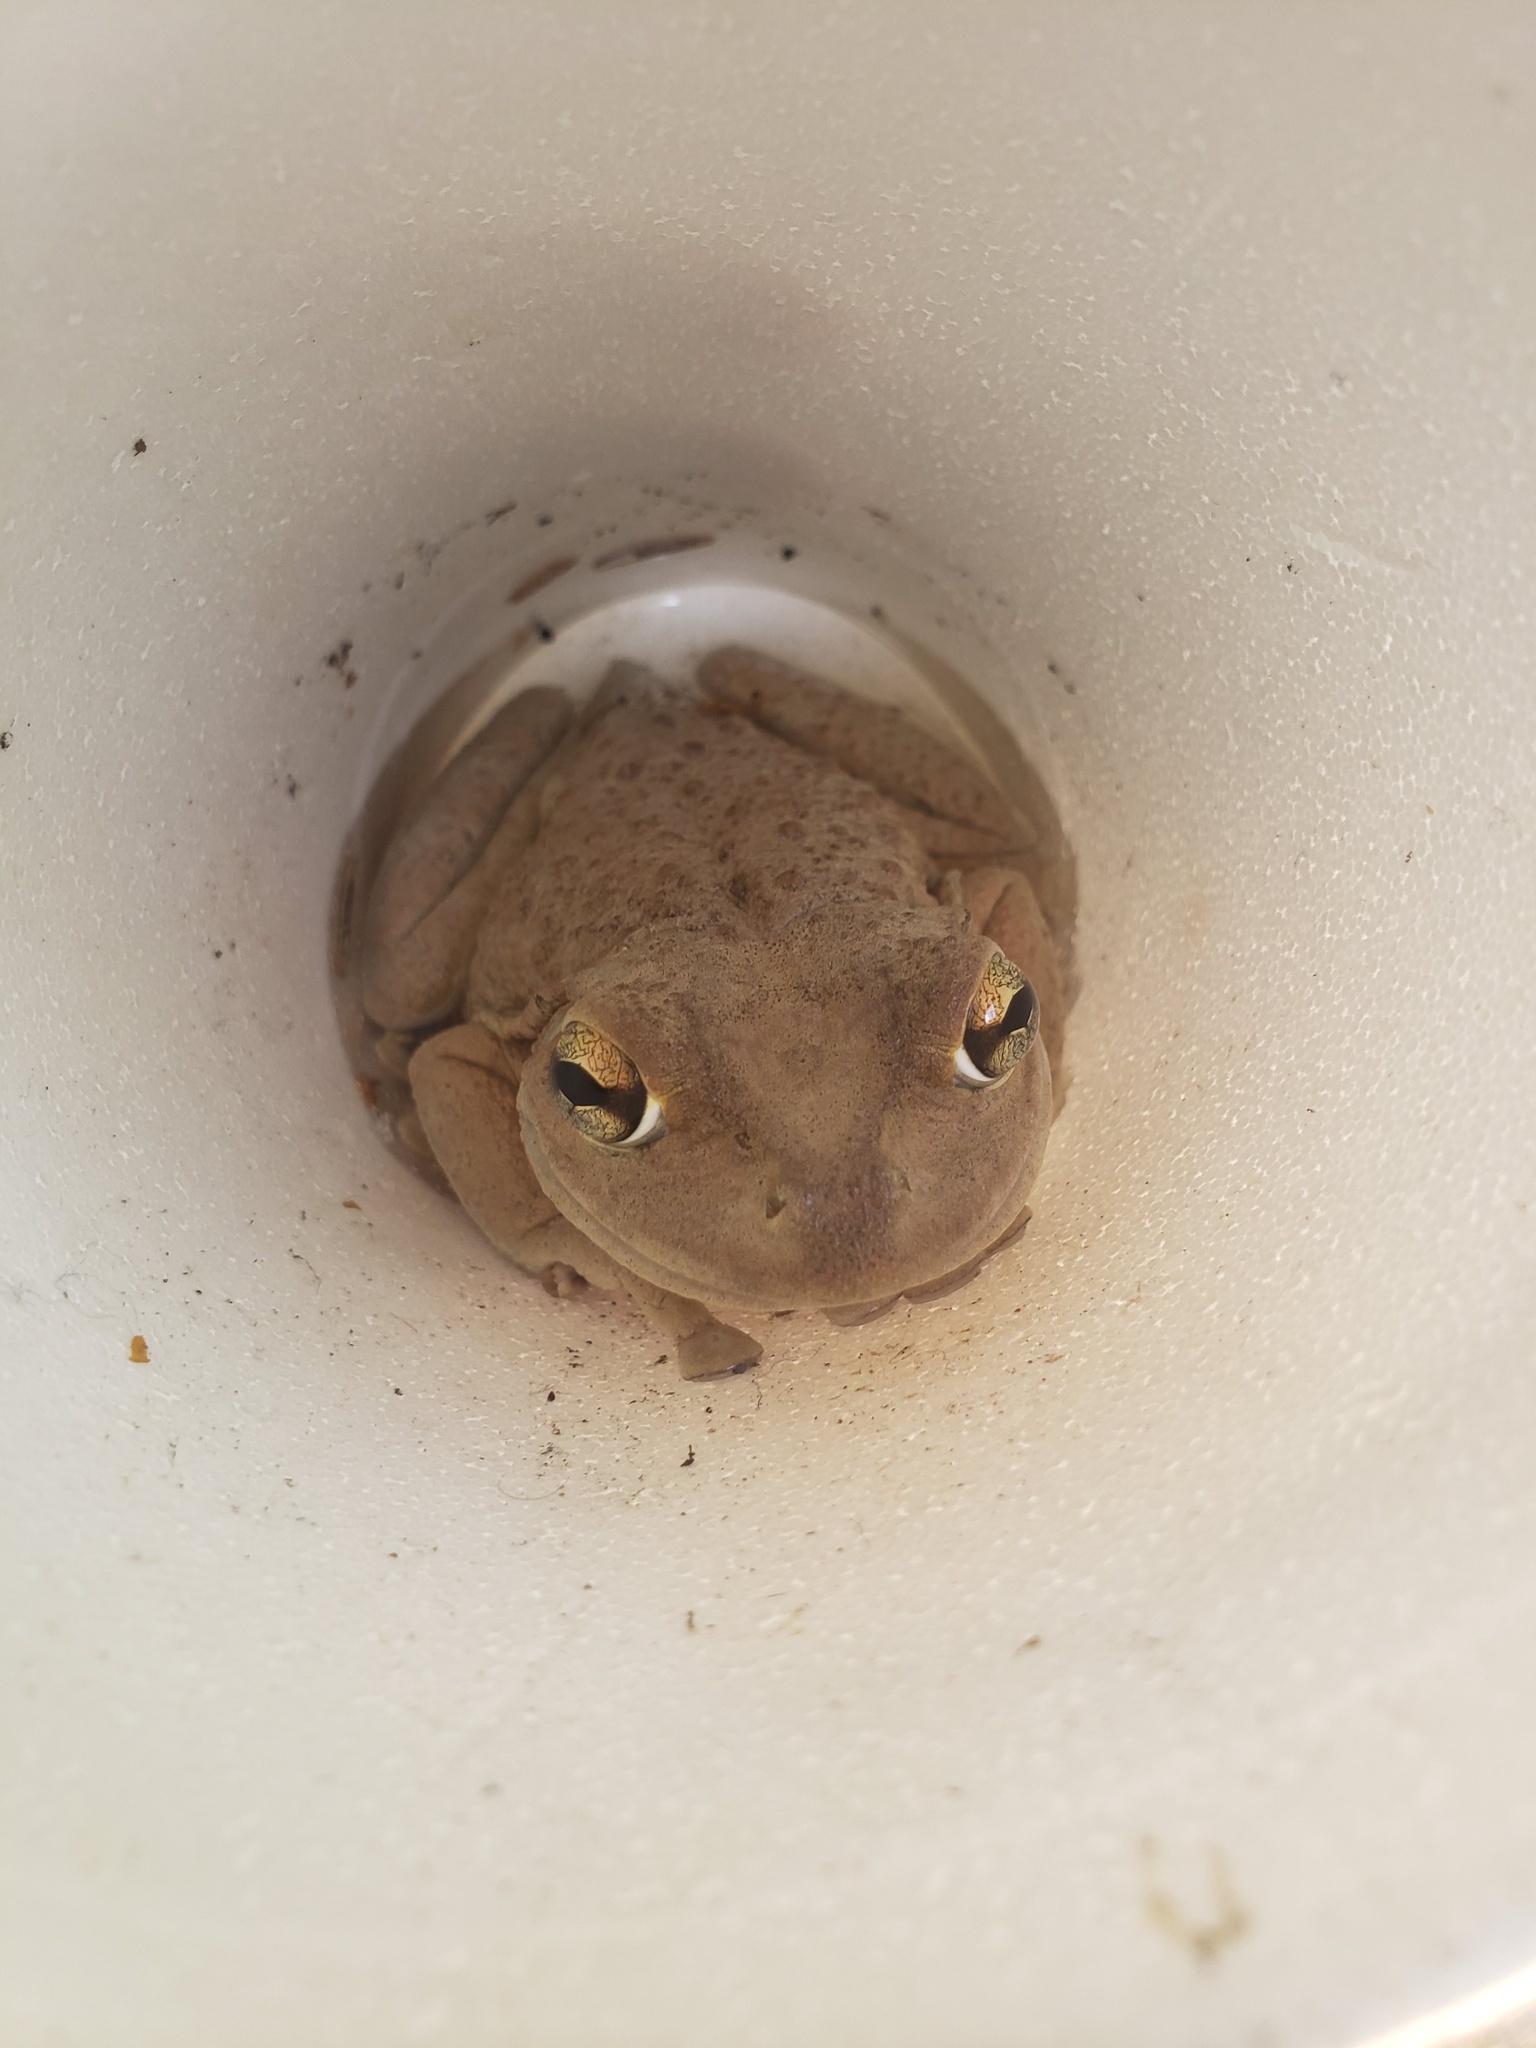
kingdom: Animalia
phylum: Chordata
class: Amphibia
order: Anura
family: Hylidae
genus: Osteopilus
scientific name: Osteopilus septentrionalis
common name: Cuban treefrog
